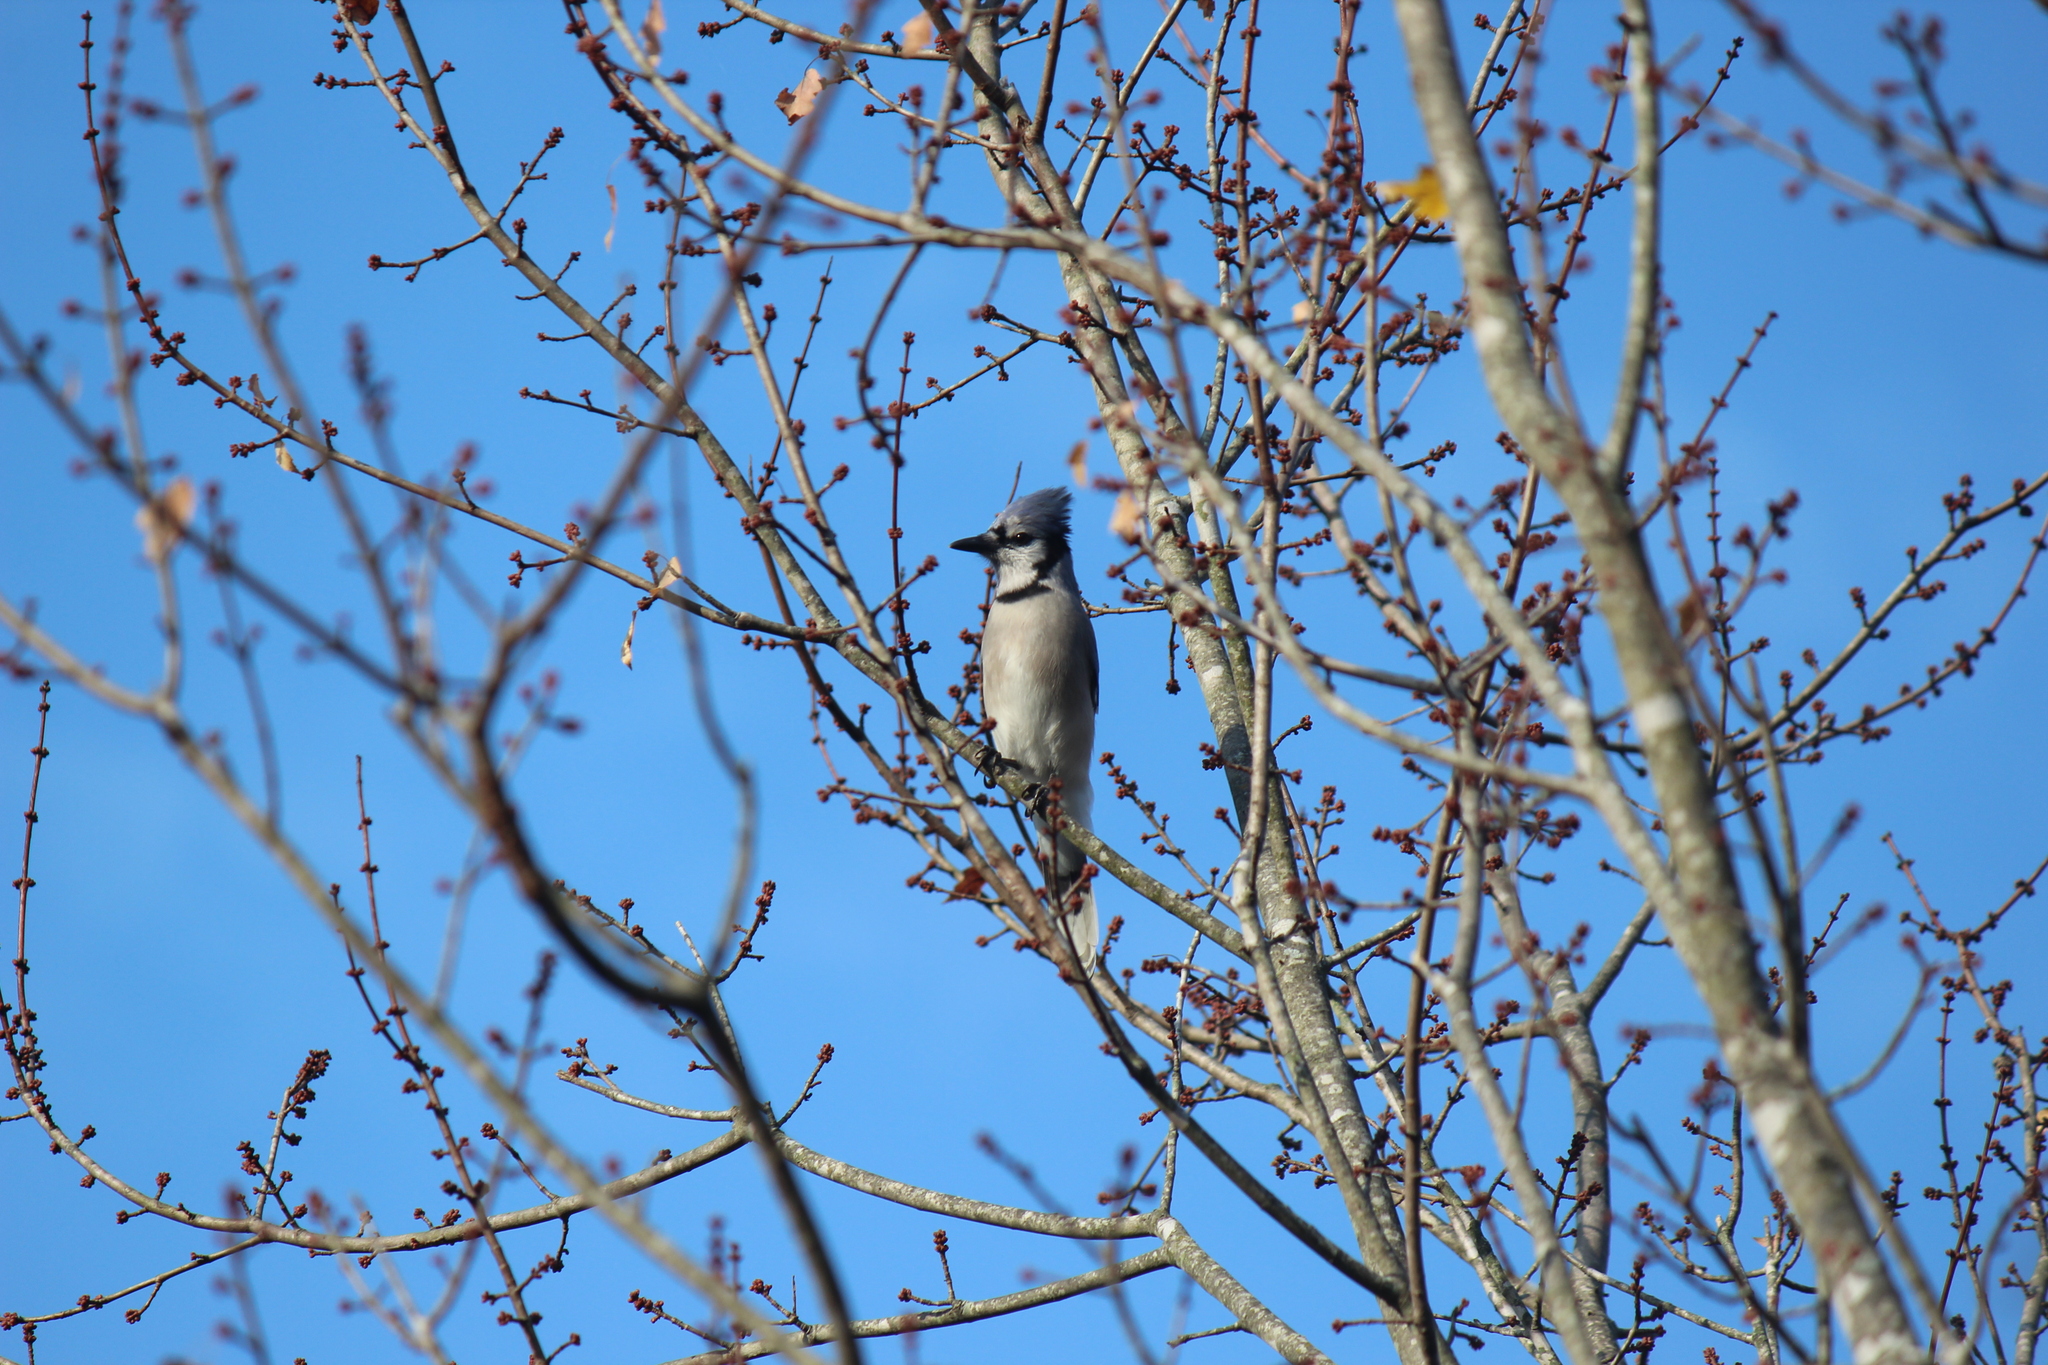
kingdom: Animalia
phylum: Chordata
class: Aves
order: Passeriformes
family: Corvidae
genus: Cyanocitta
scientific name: Cyanocitta cristata
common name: Blue jay
